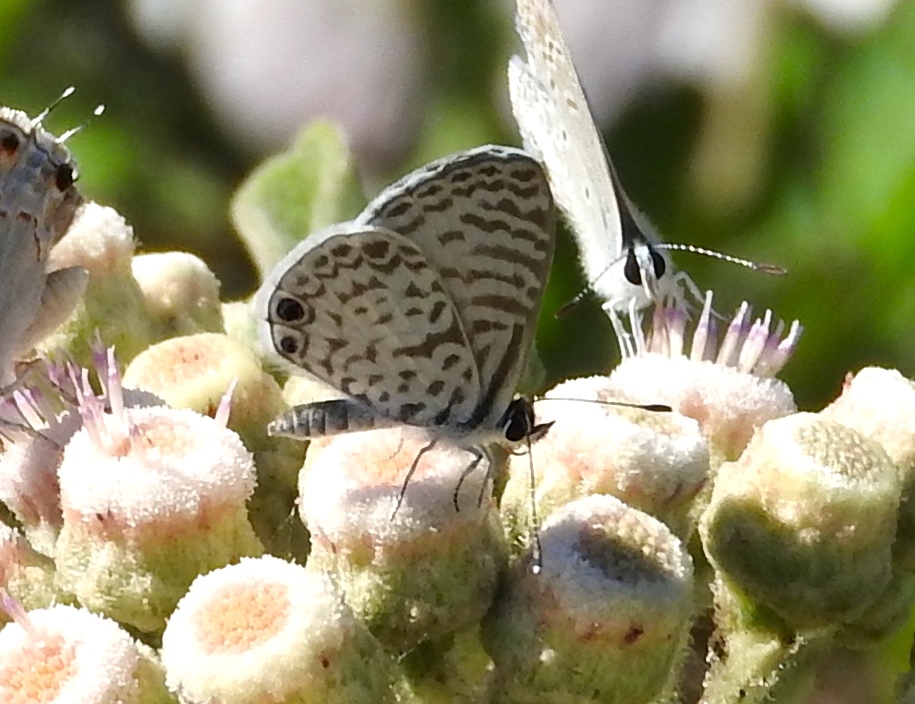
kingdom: Animalia
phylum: Arthropoda
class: Insecta
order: Lepidoptera
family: Lycaenidae
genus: Leptotes
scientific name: Leptotes theonus
